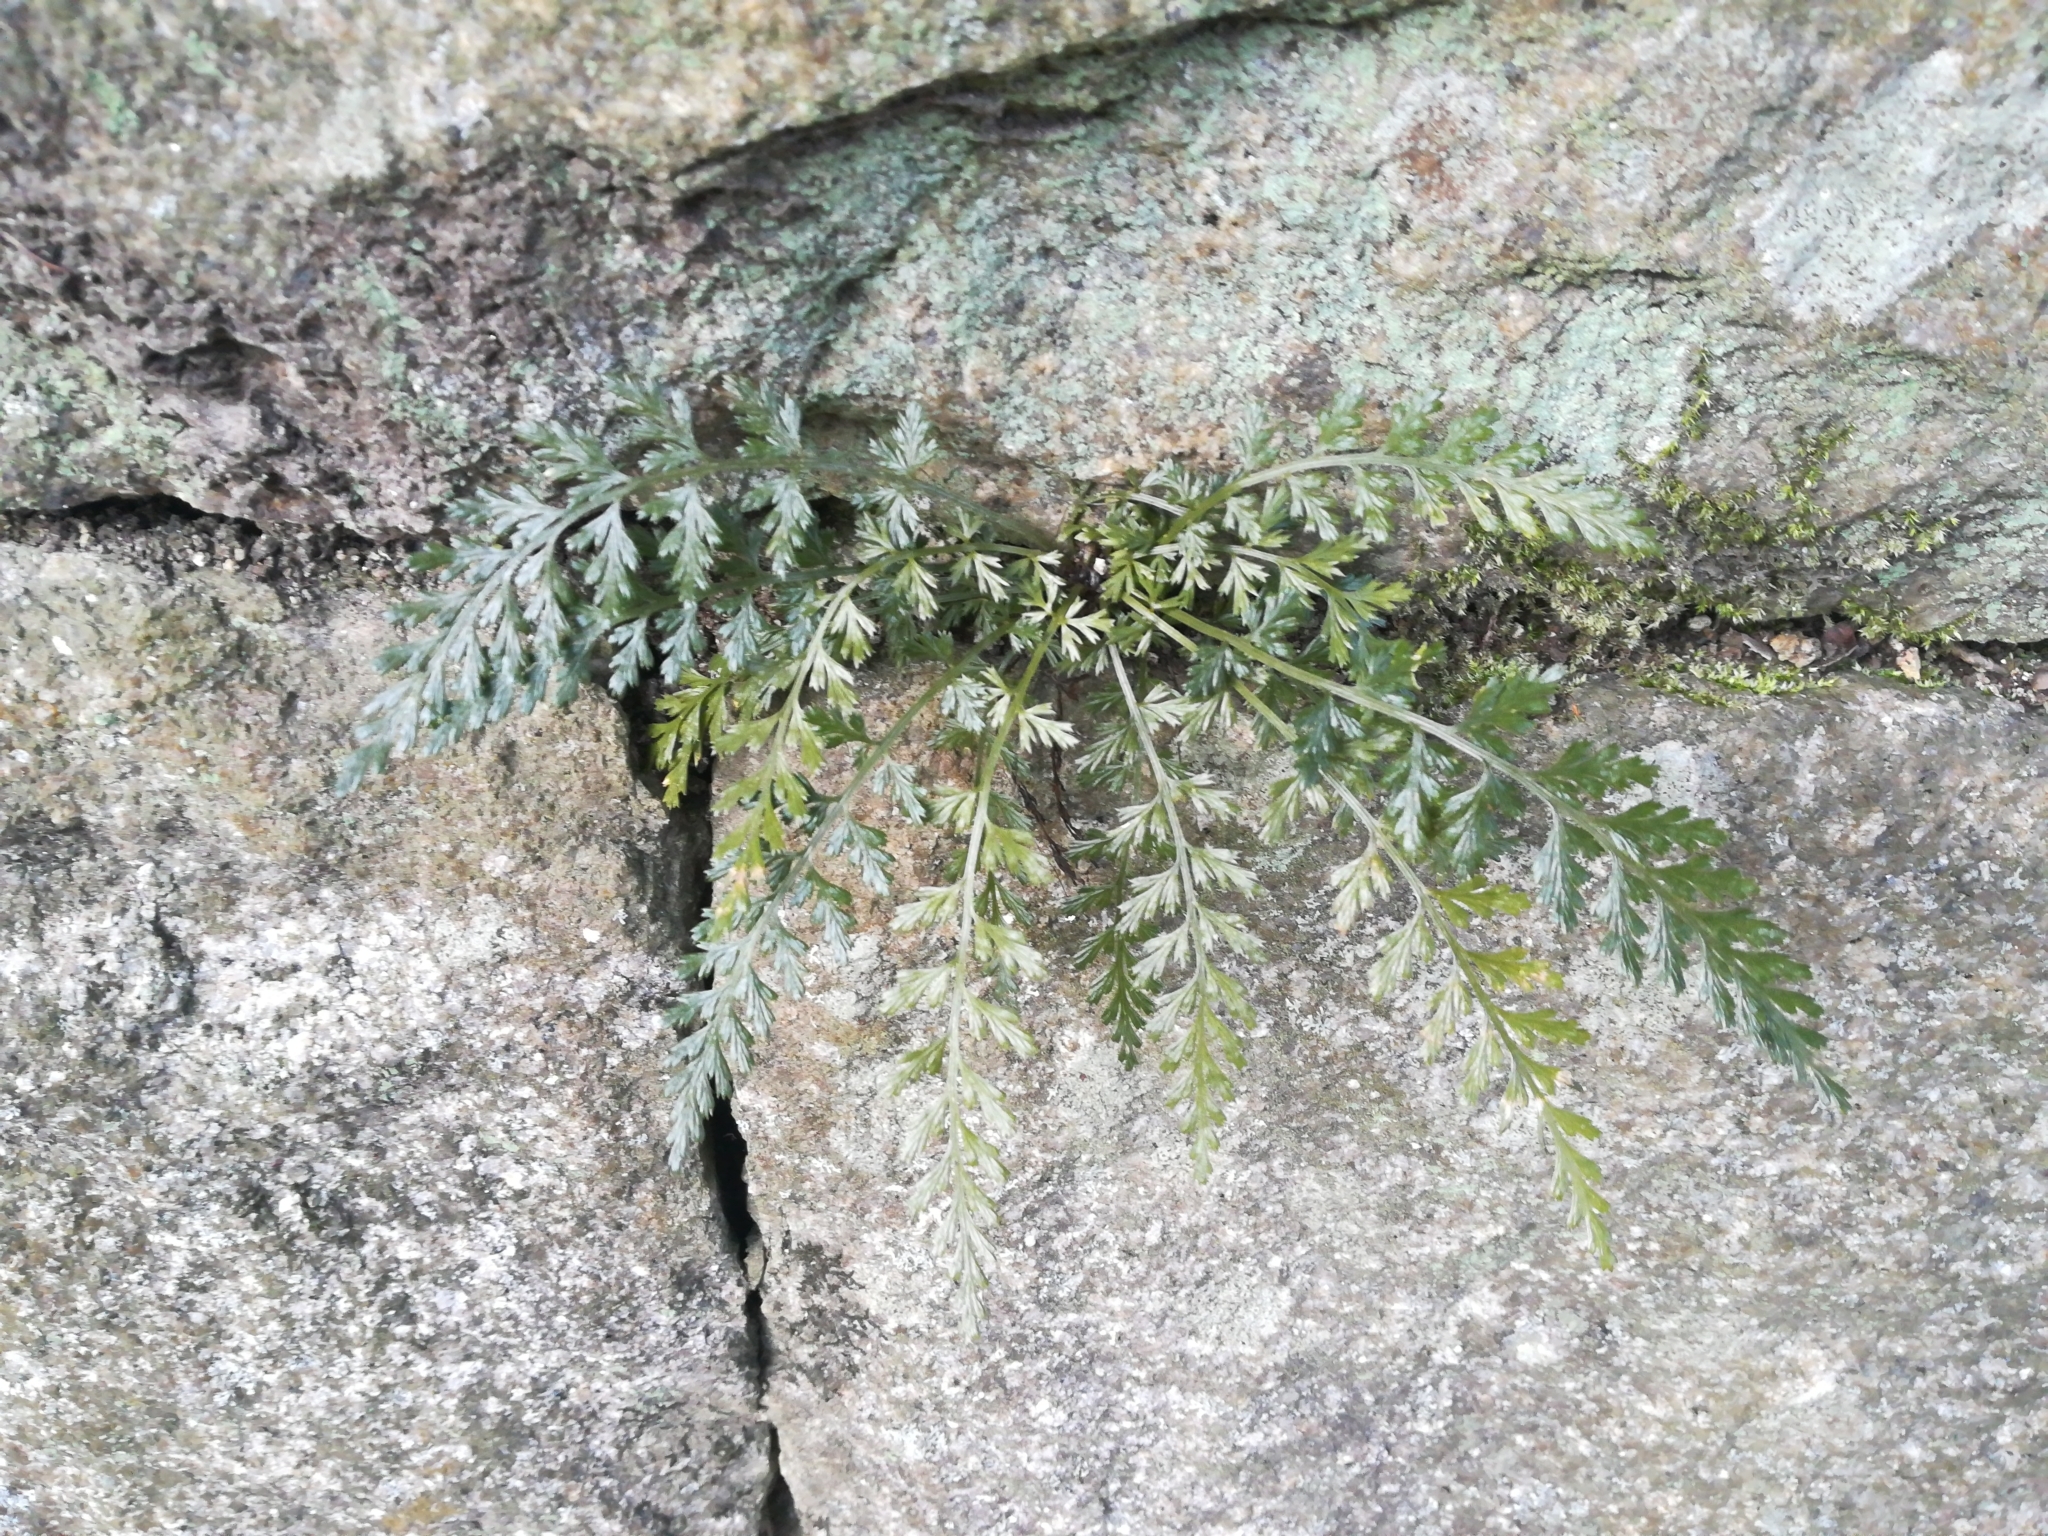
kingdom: Plantae
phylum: Tracheophyta
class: Polypodiopsida
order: Polypodiales
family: Aspleniaceae
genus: Asplenium
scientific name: Asplenium sarelii
